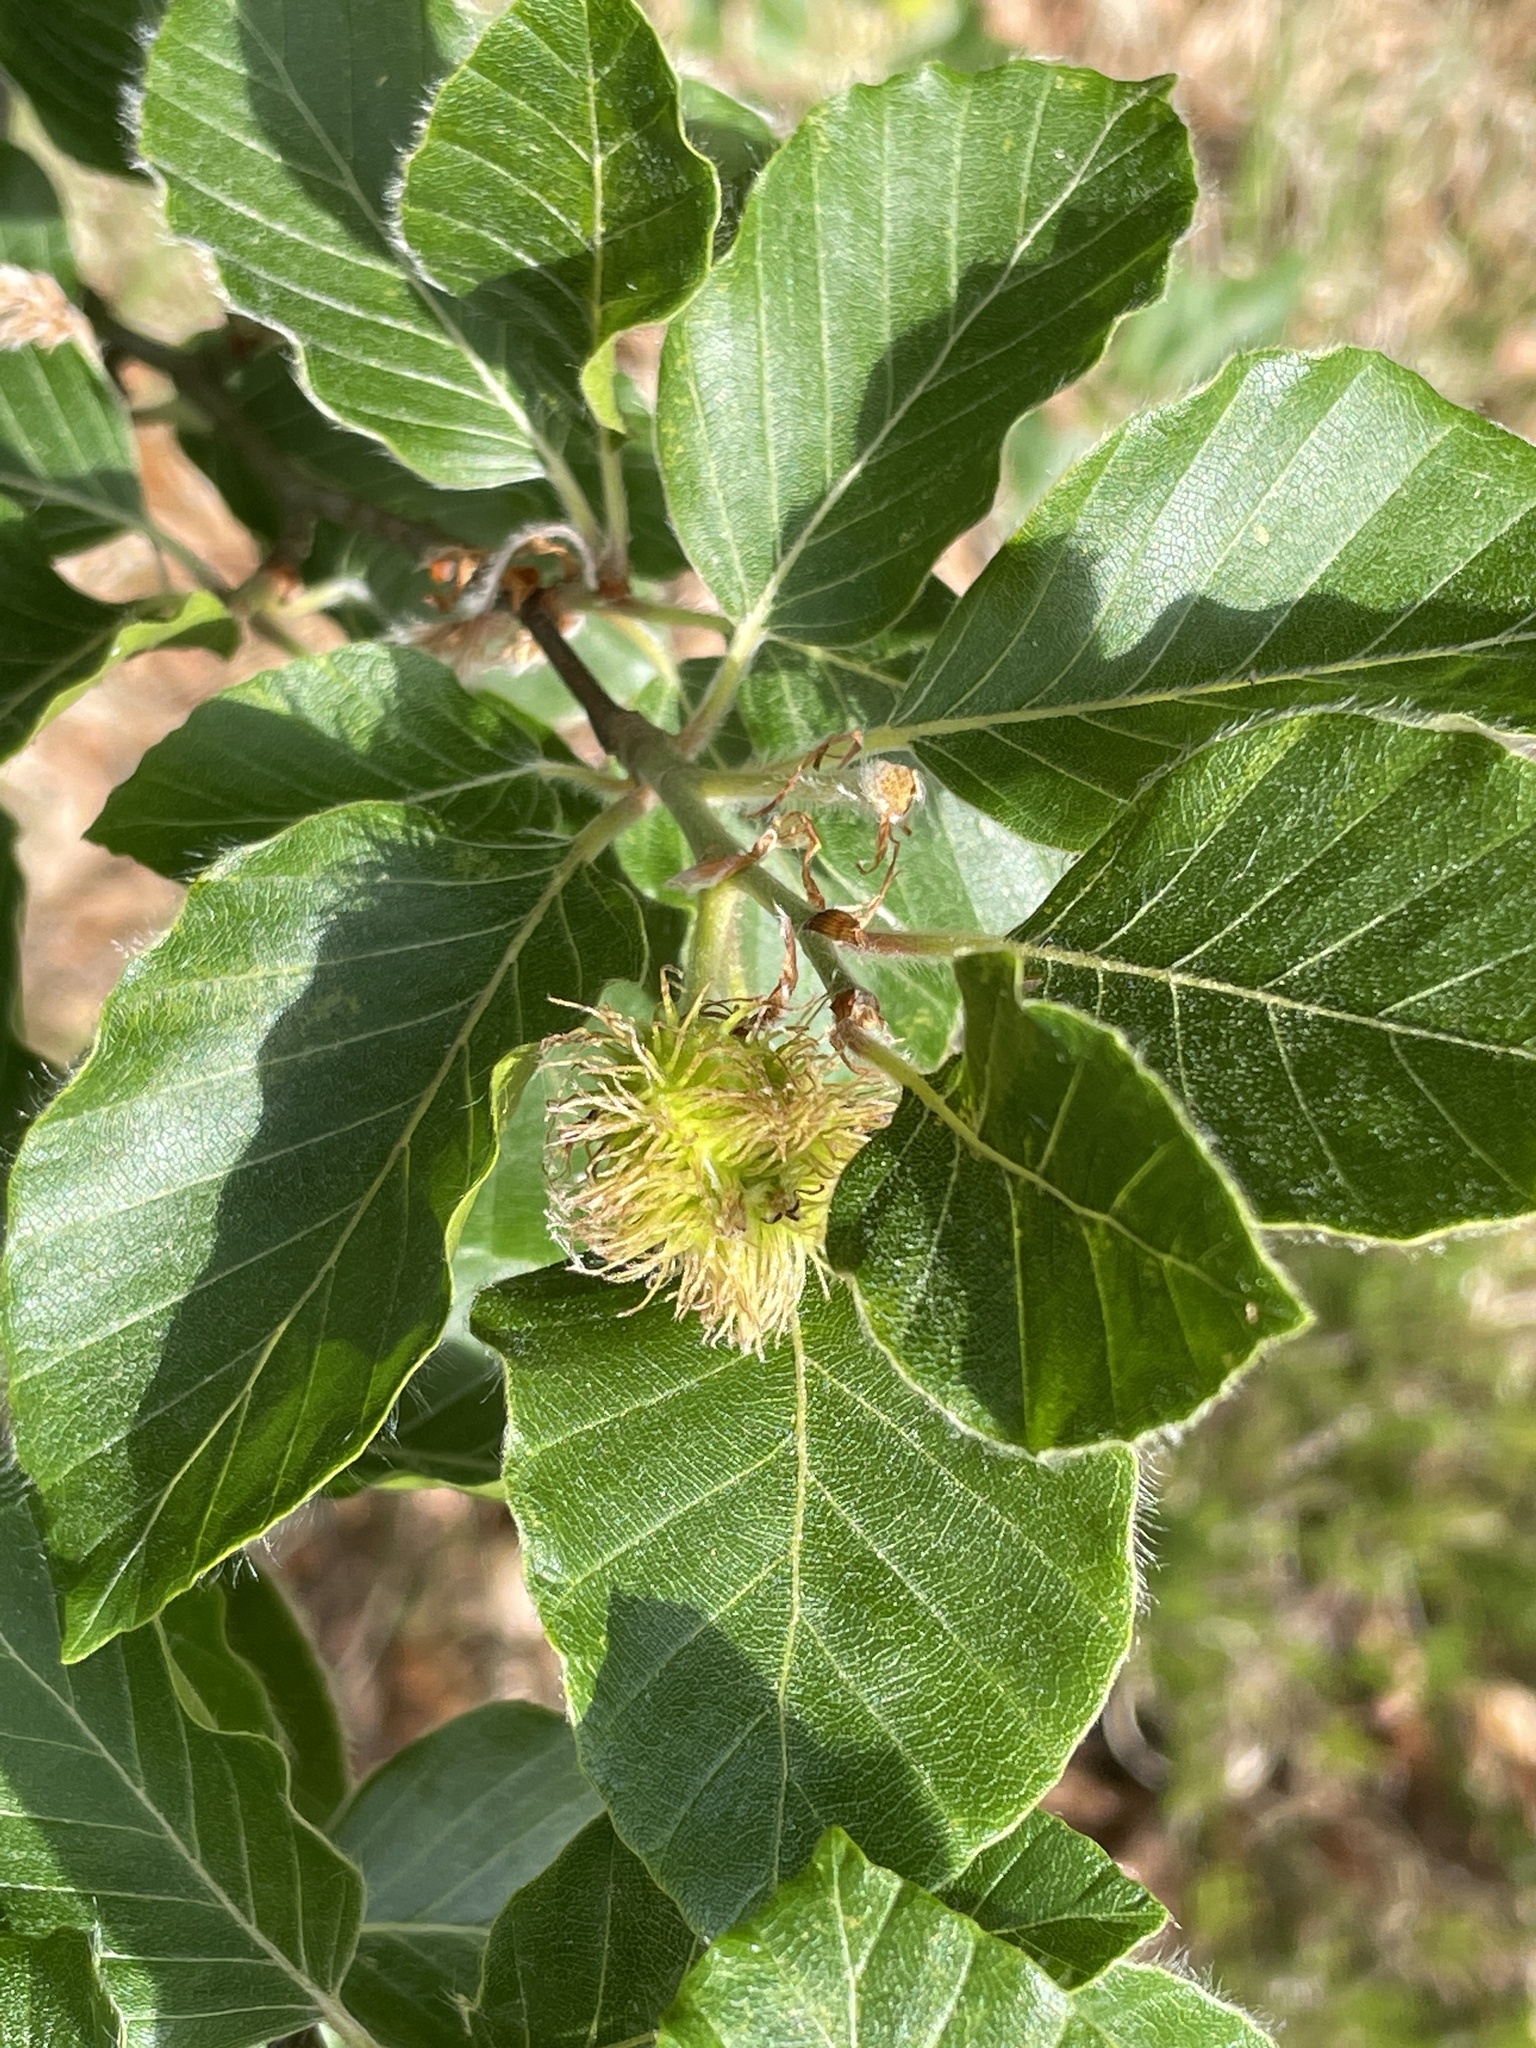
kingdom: Plantae
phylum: Tracheophyta
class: Magnoliopsida
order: Fagales
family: Fagaceae
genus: Fagus
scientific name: Fagus sylvatica
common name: Beech
